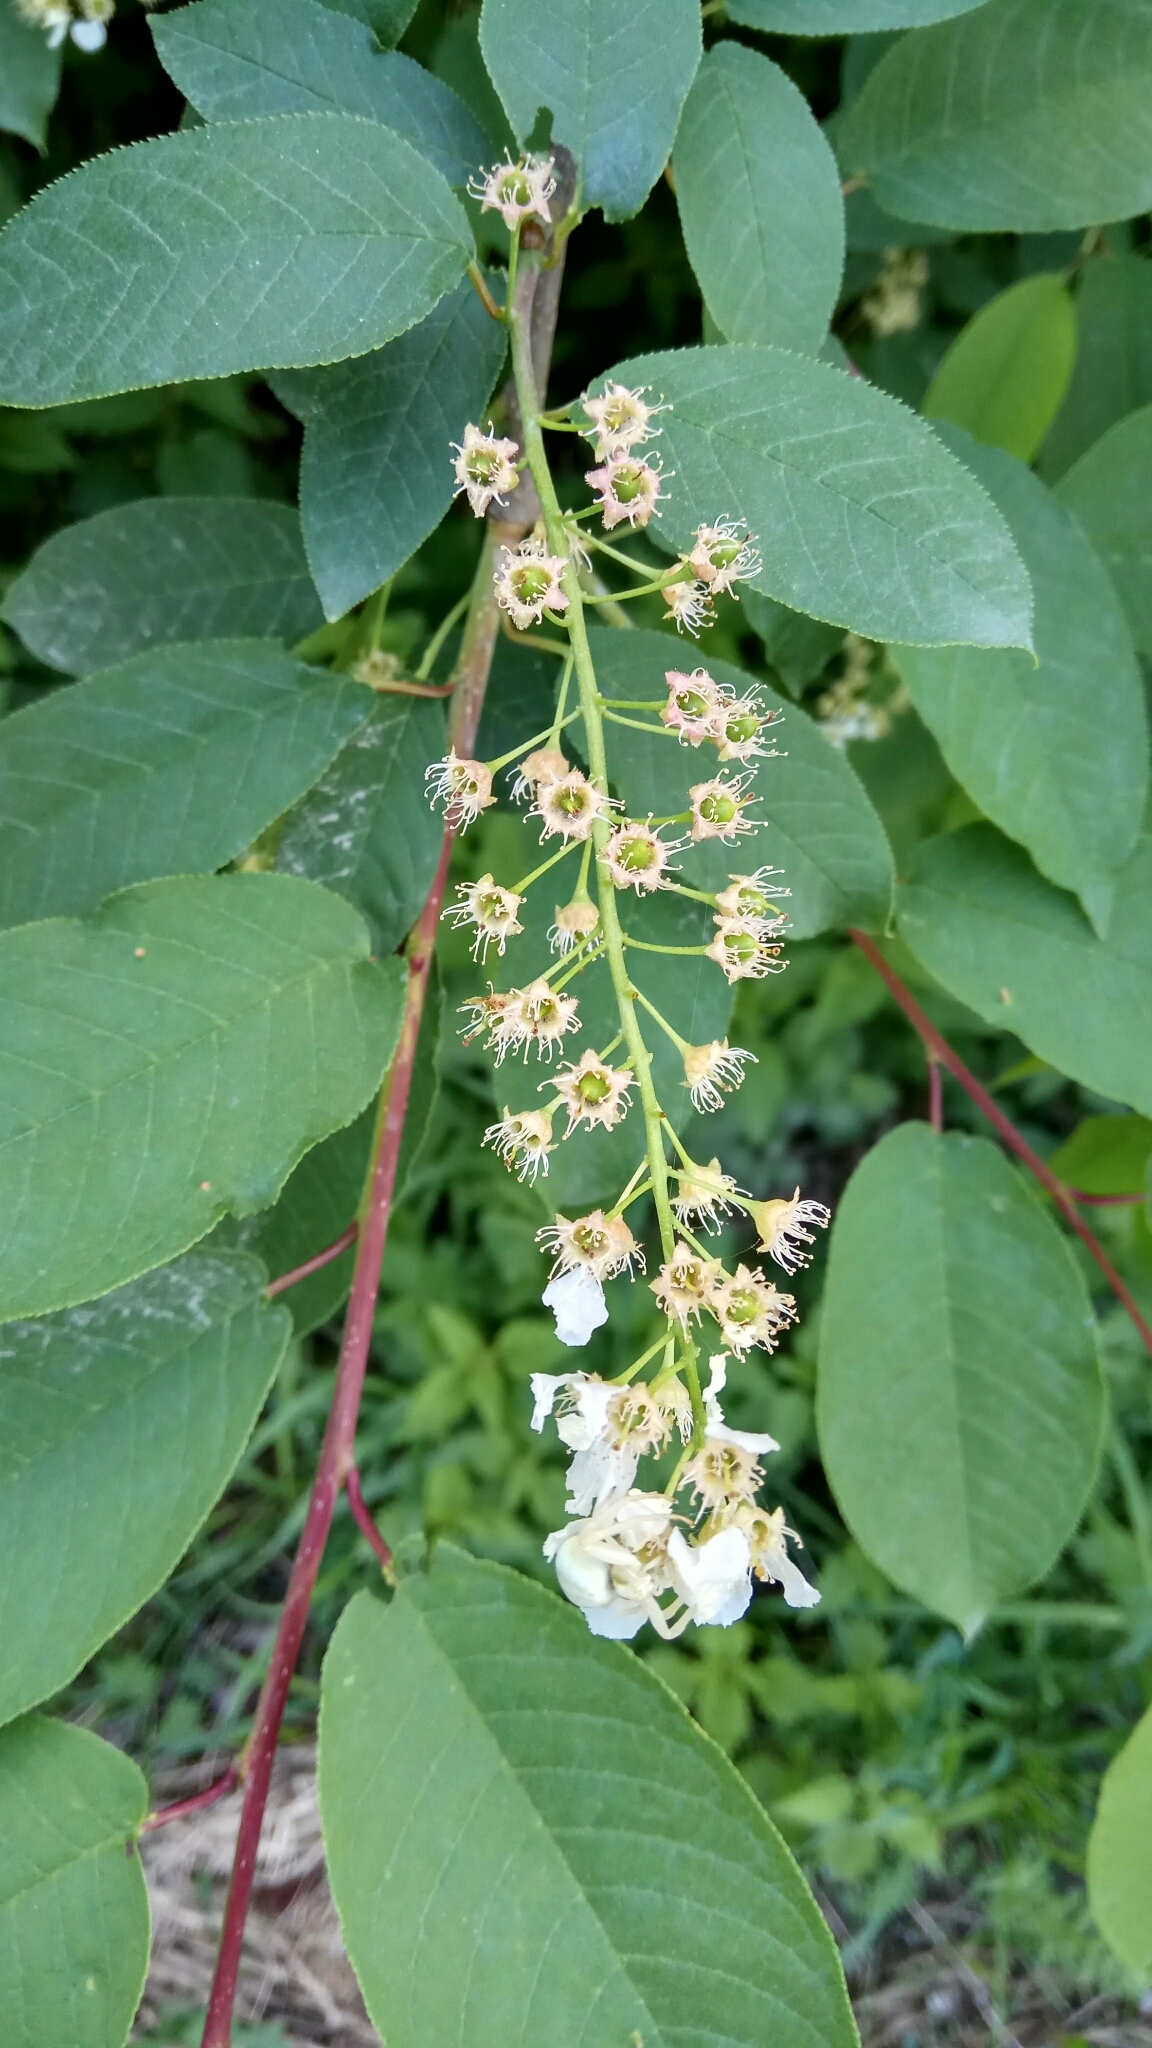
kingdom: Plantae
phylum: Tracheophyta
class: Magnoliopsida
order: Rosales
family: Rosaceae
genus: Prunus
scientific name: Prunus padus
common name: Bird cherry
